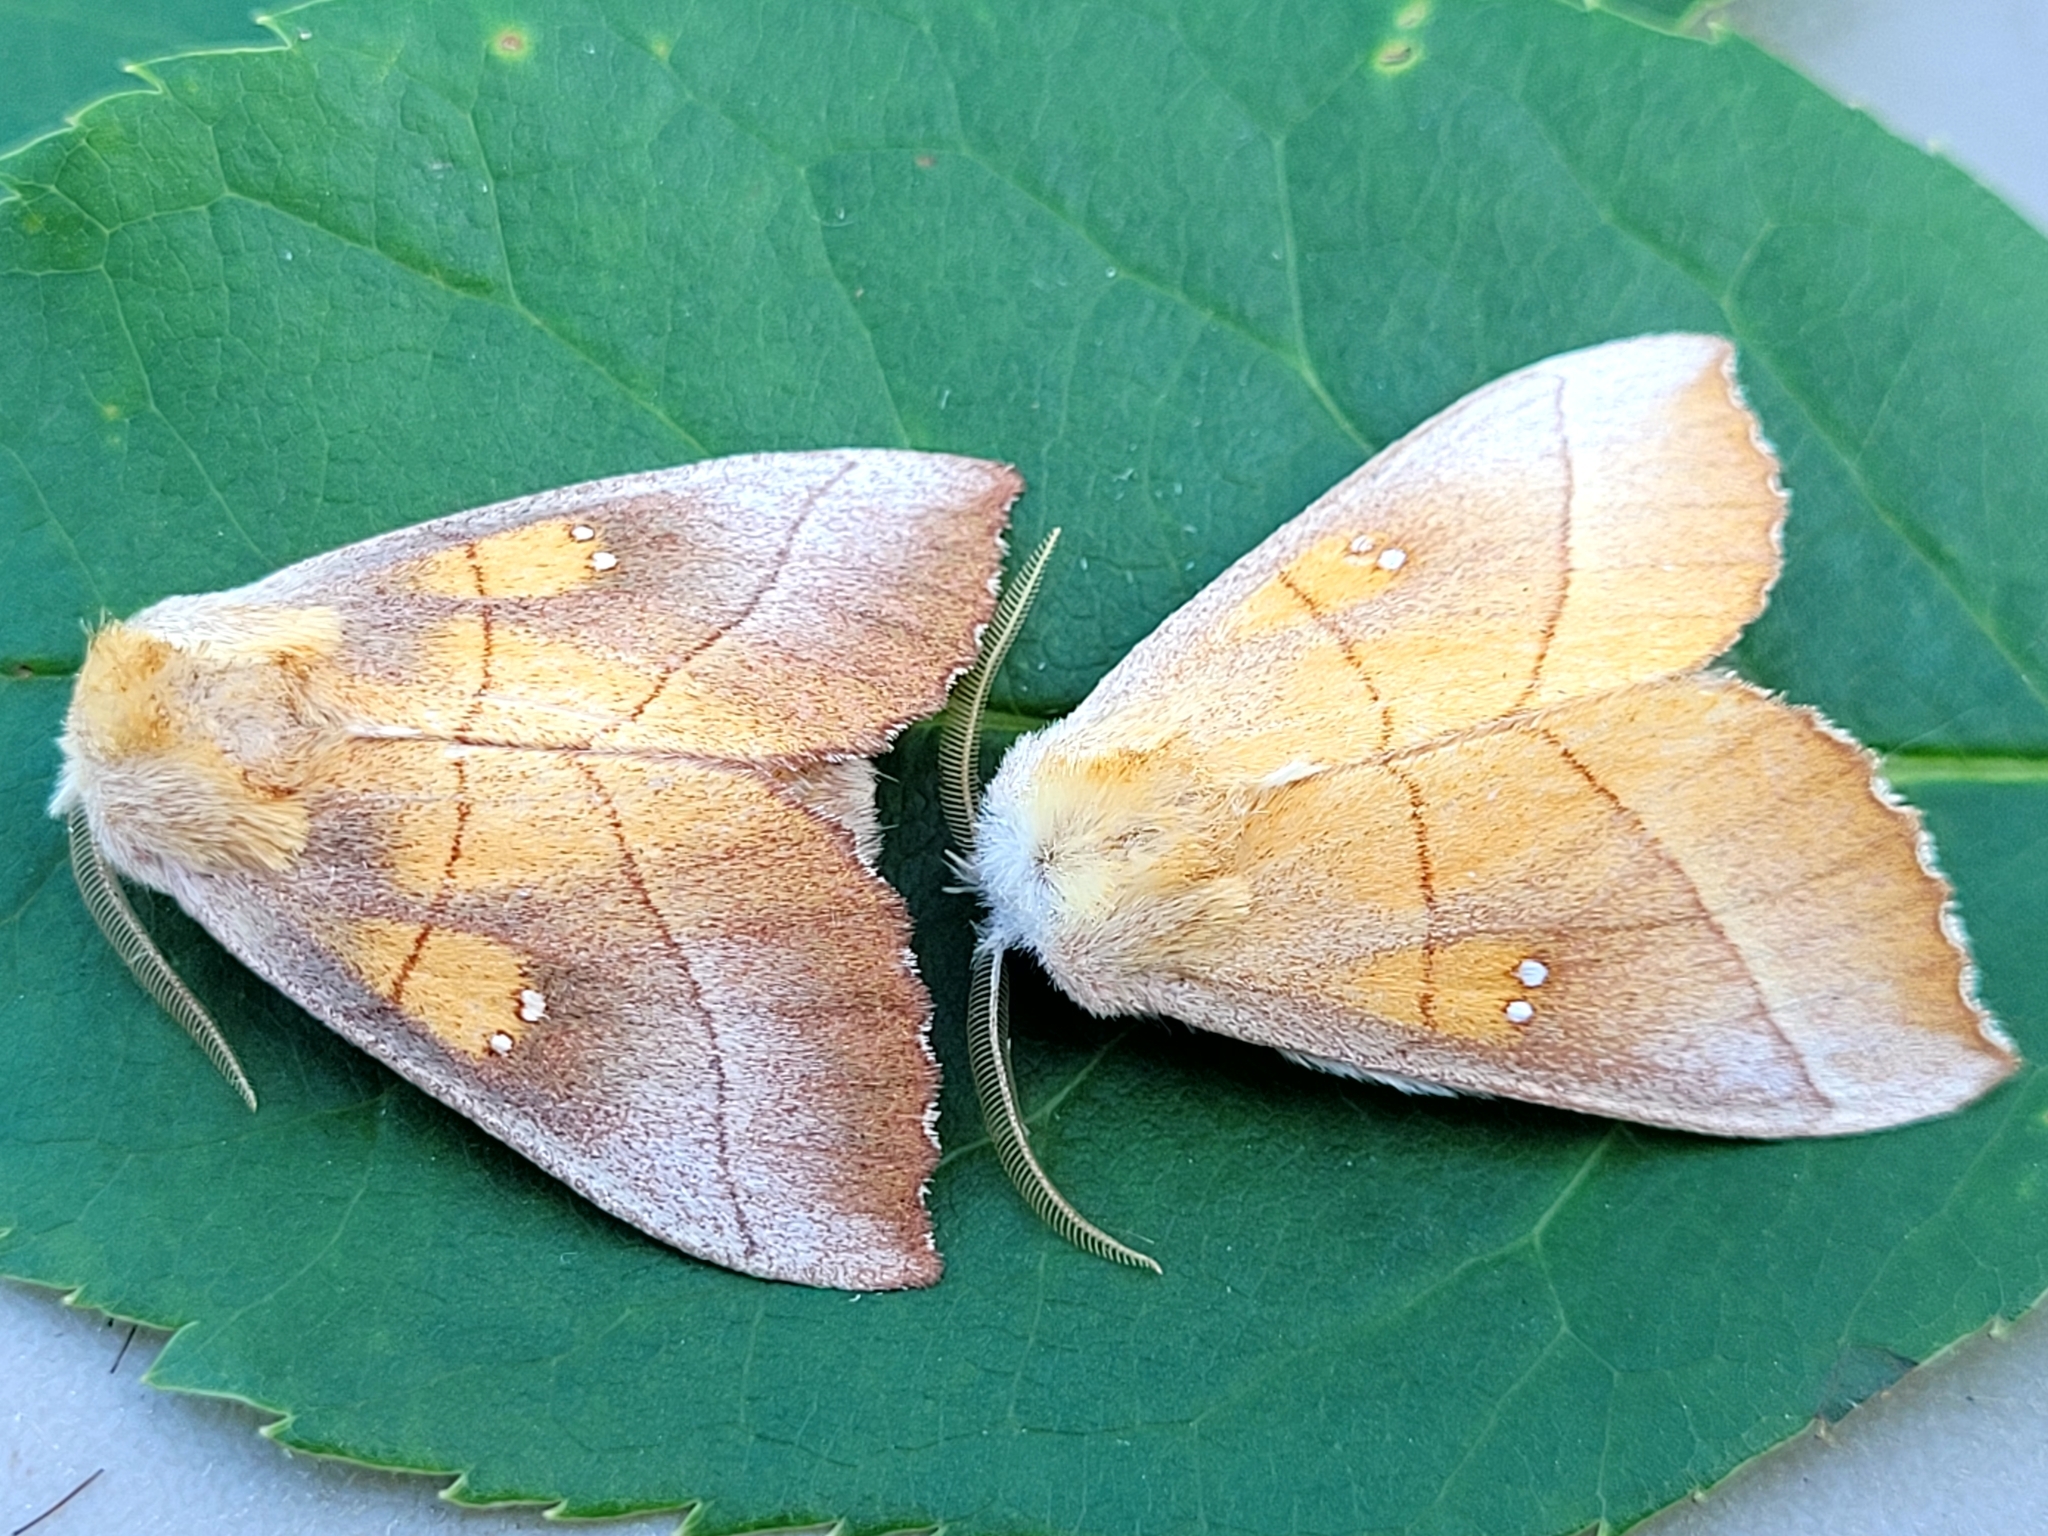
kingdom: Animalia
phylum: Arthropoda
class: Insecta
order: Lepidoptera
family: Notodontidae
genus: Nadata
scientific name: Nadata gibbosa
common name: White-dotted prominent
